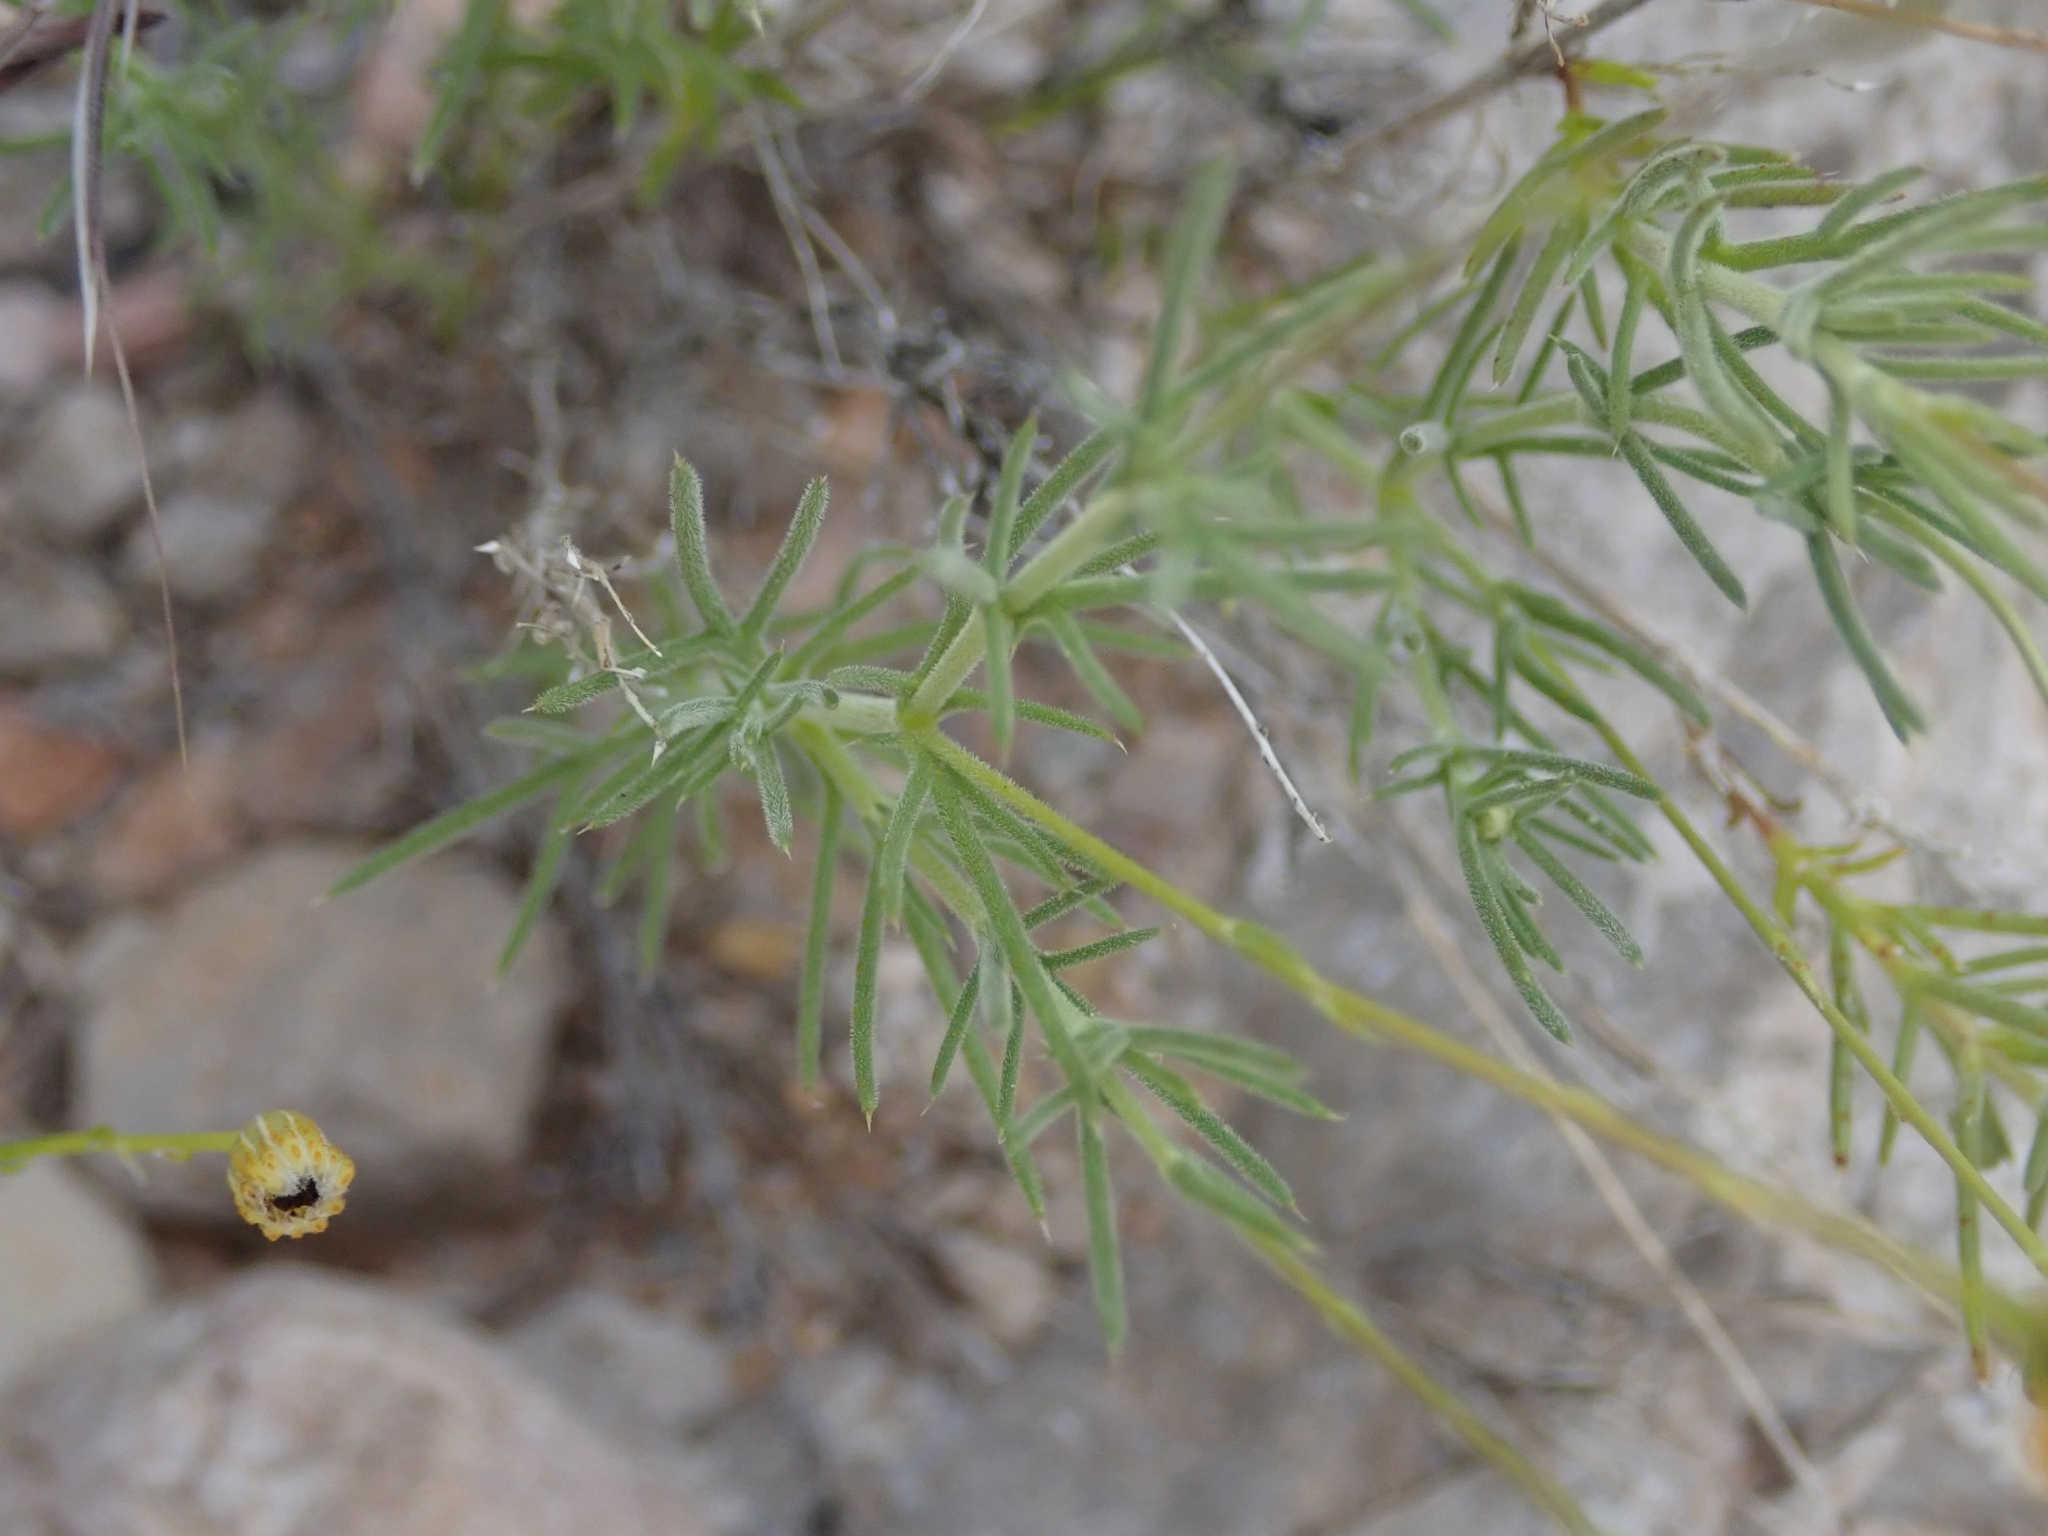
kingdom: Plantae
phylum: Tracheophyta
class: Magnoliopsida
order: Asterales
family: Asteraceae
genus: Thymophylla
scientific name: Thymophylla pentachaeta
